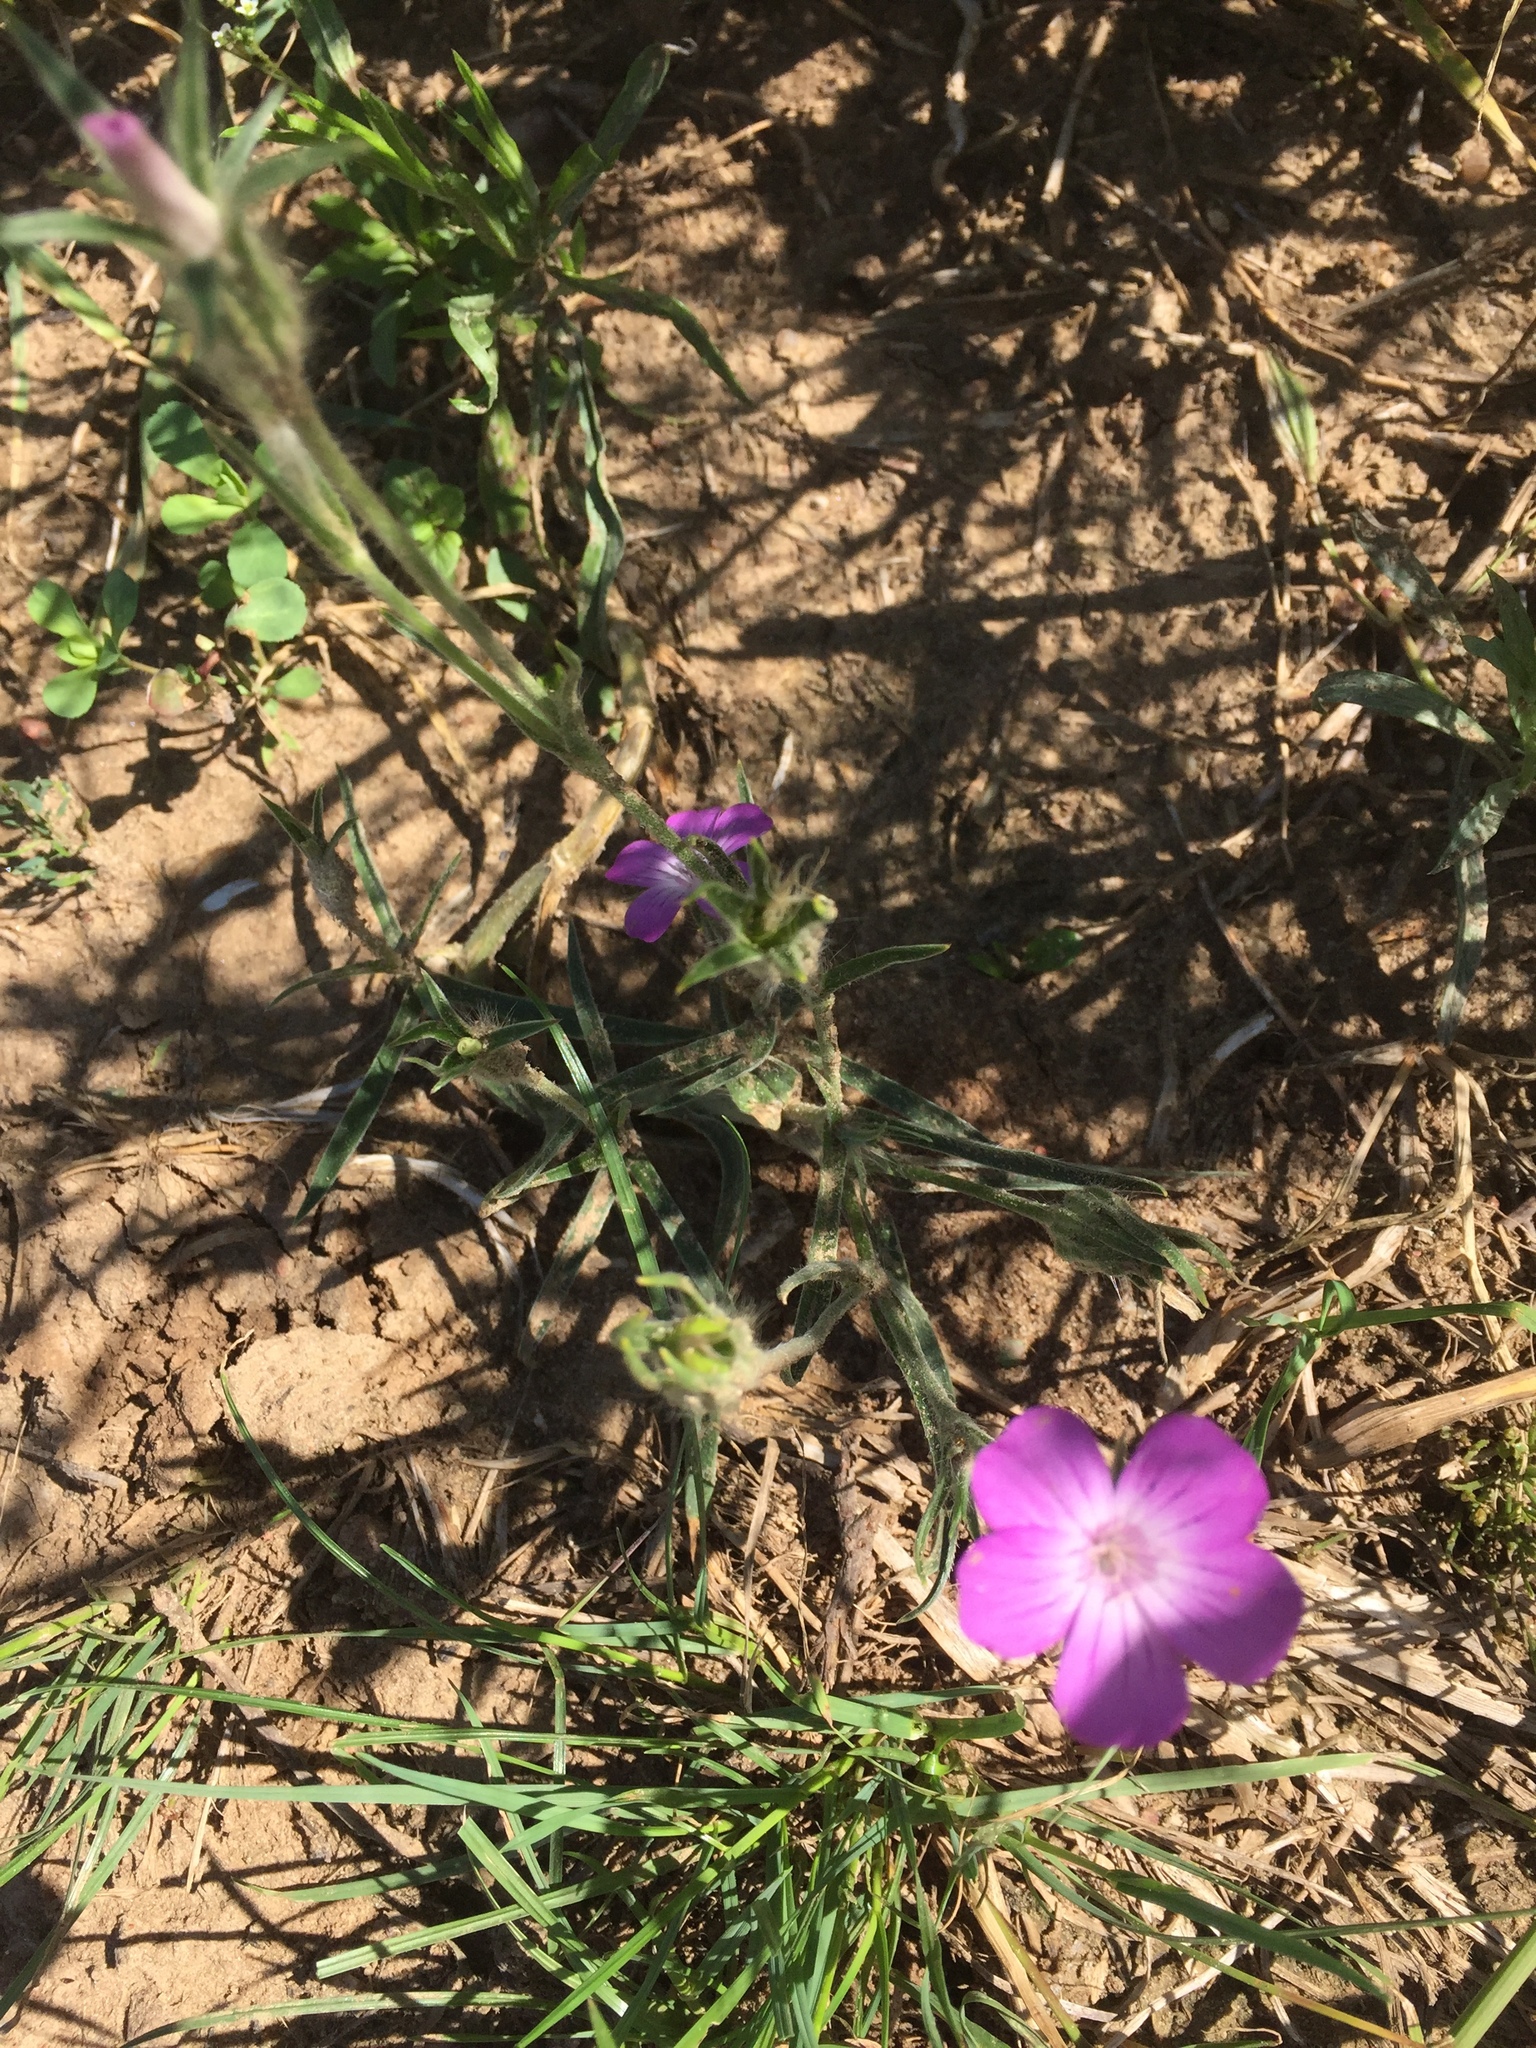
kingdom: Plantae
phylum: Tracheophyta
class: Magnoliopsida
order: Caryophyllales
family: Caryophyllaceae
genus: Agrostemma
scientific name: Agrostemma githago
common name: Common corncockle
